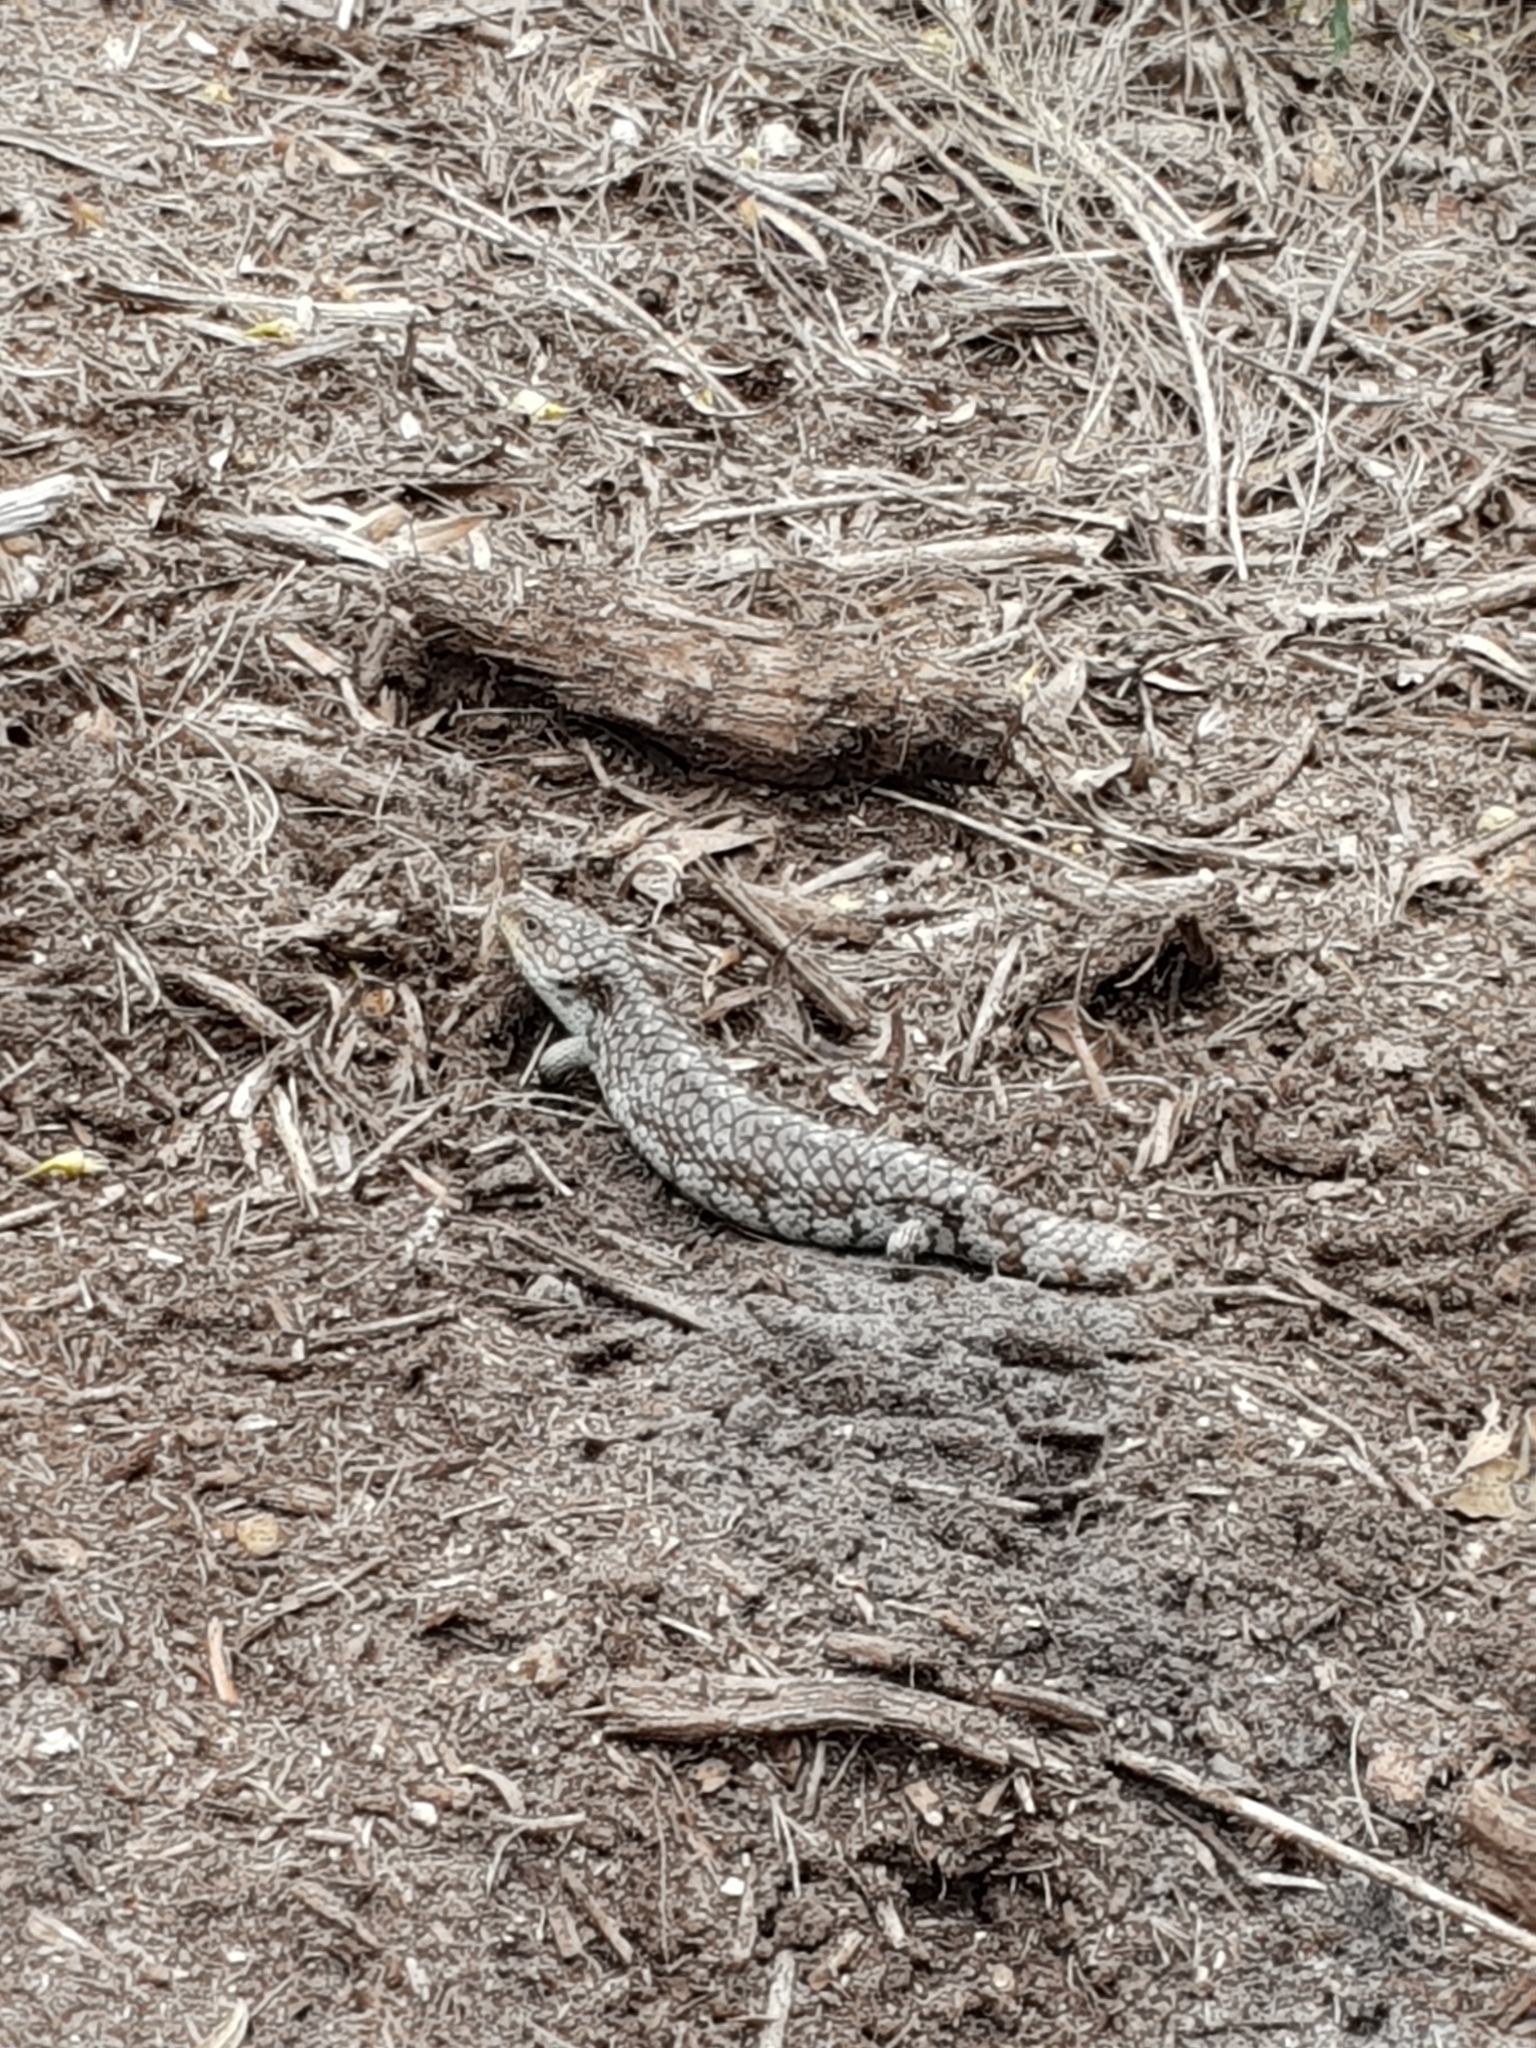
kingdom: Animalia
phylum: Chordata
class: Squamata
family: Scincidae
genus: Tiliqua
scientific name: Tiliqua rugosa
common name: Pinecone lizard
